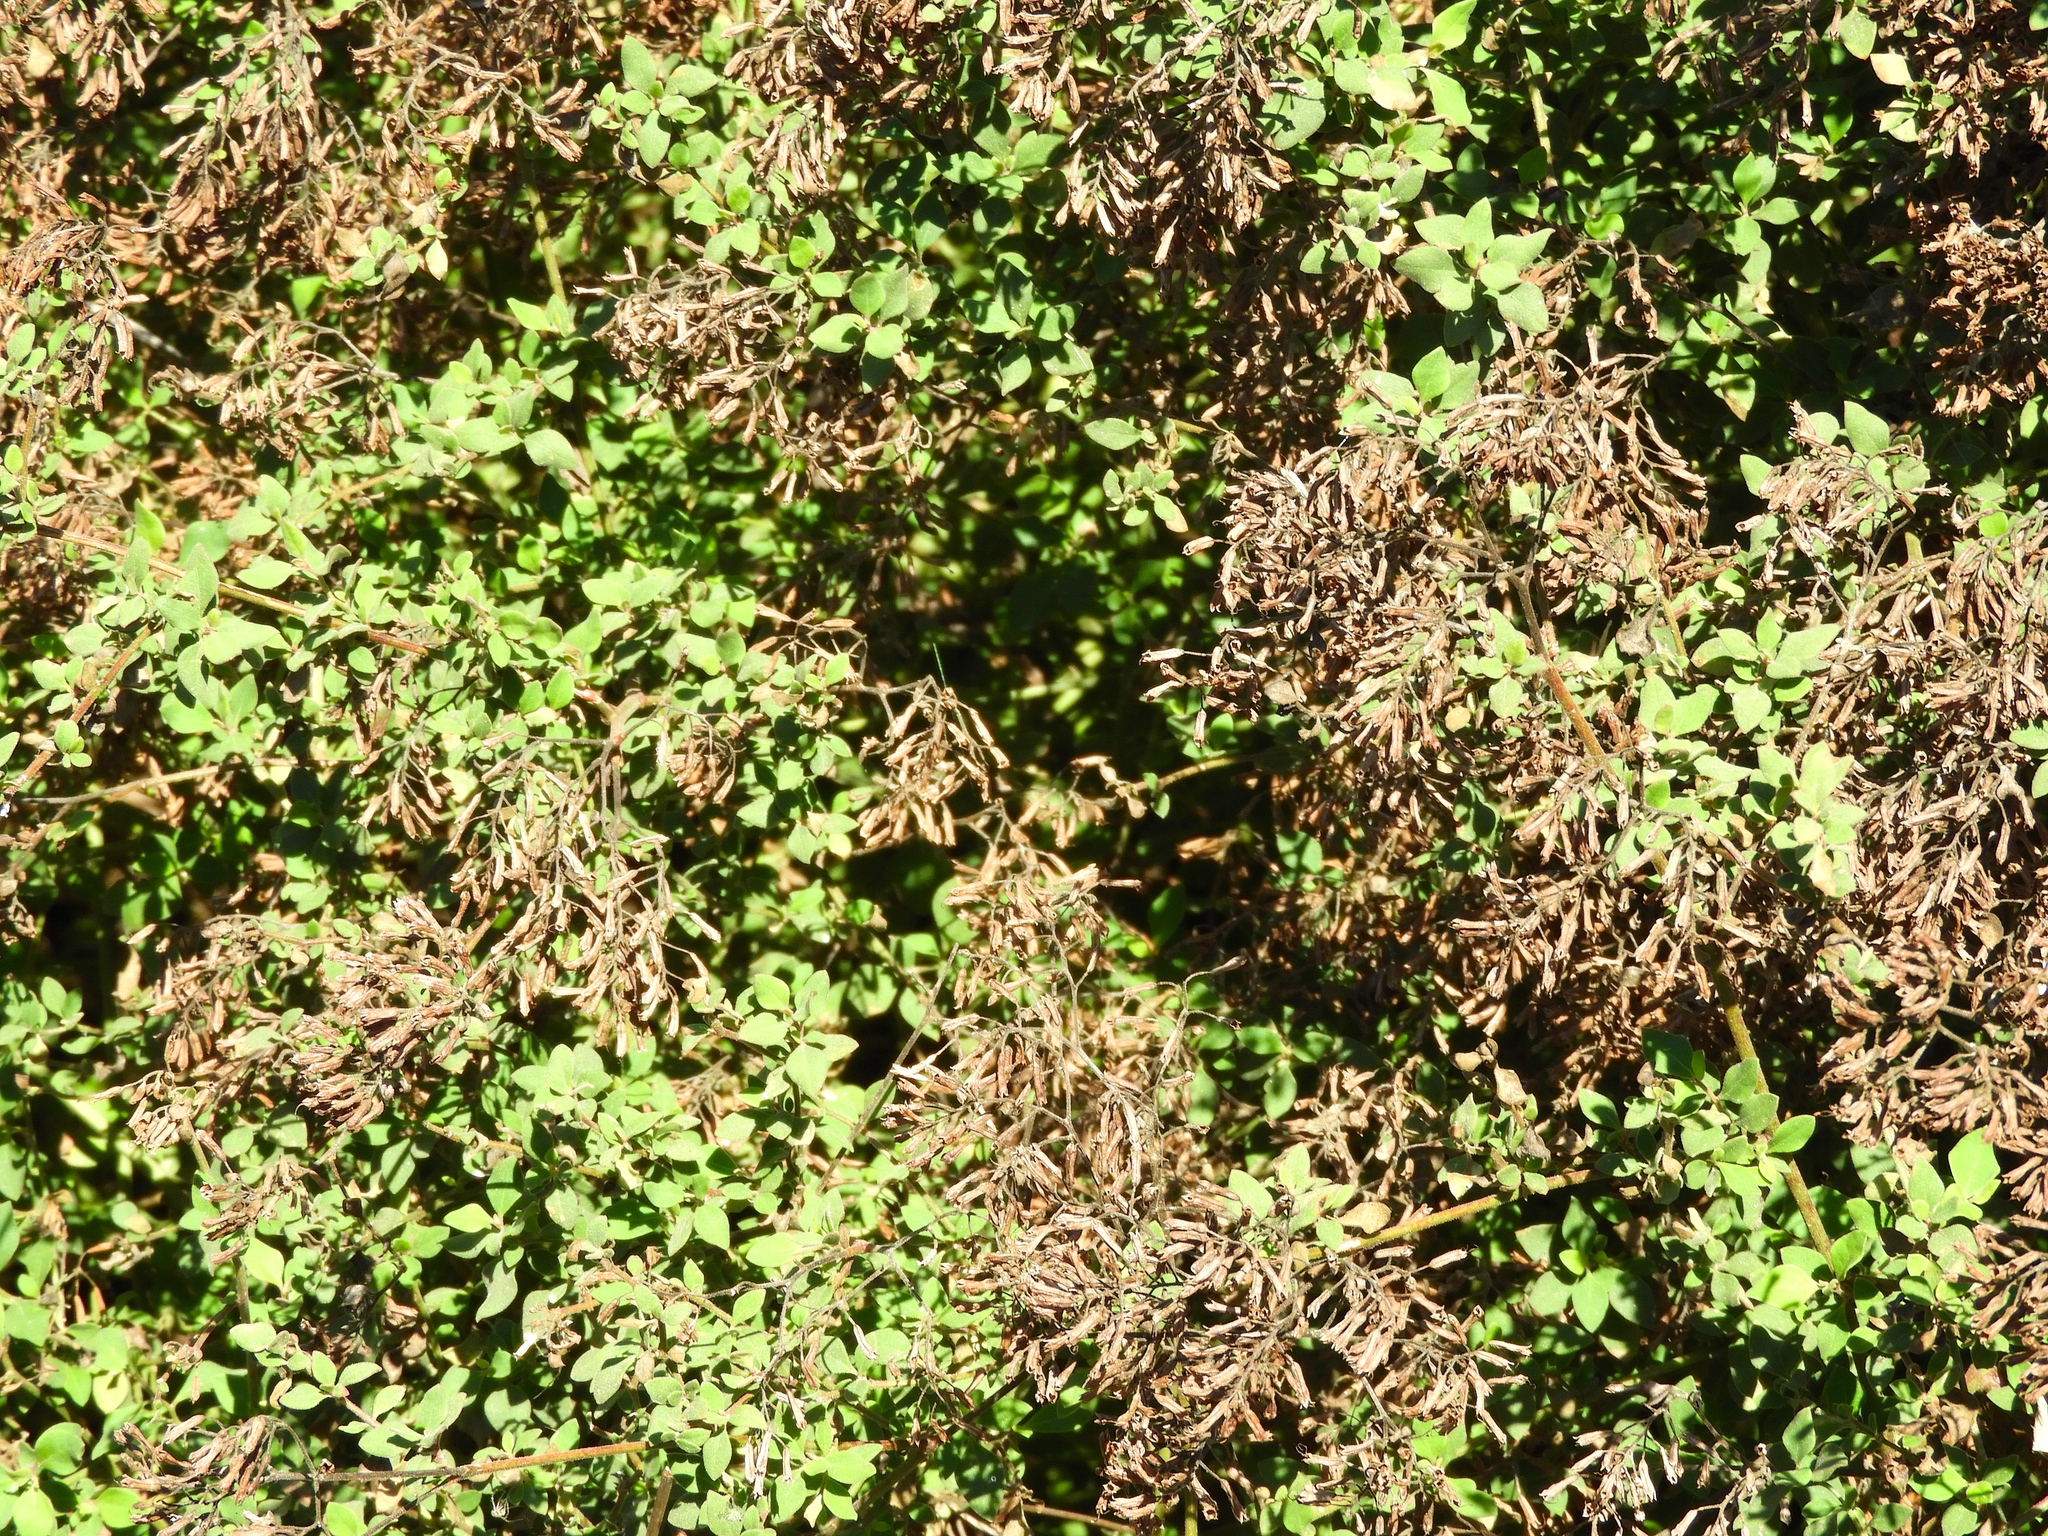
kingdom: Plantae
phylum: Tracheophyta
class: Magnoliopsida
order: Caryophyllales
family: Nyctaginaceae
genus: Salpianthus
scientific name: Salpianthus arenarius
